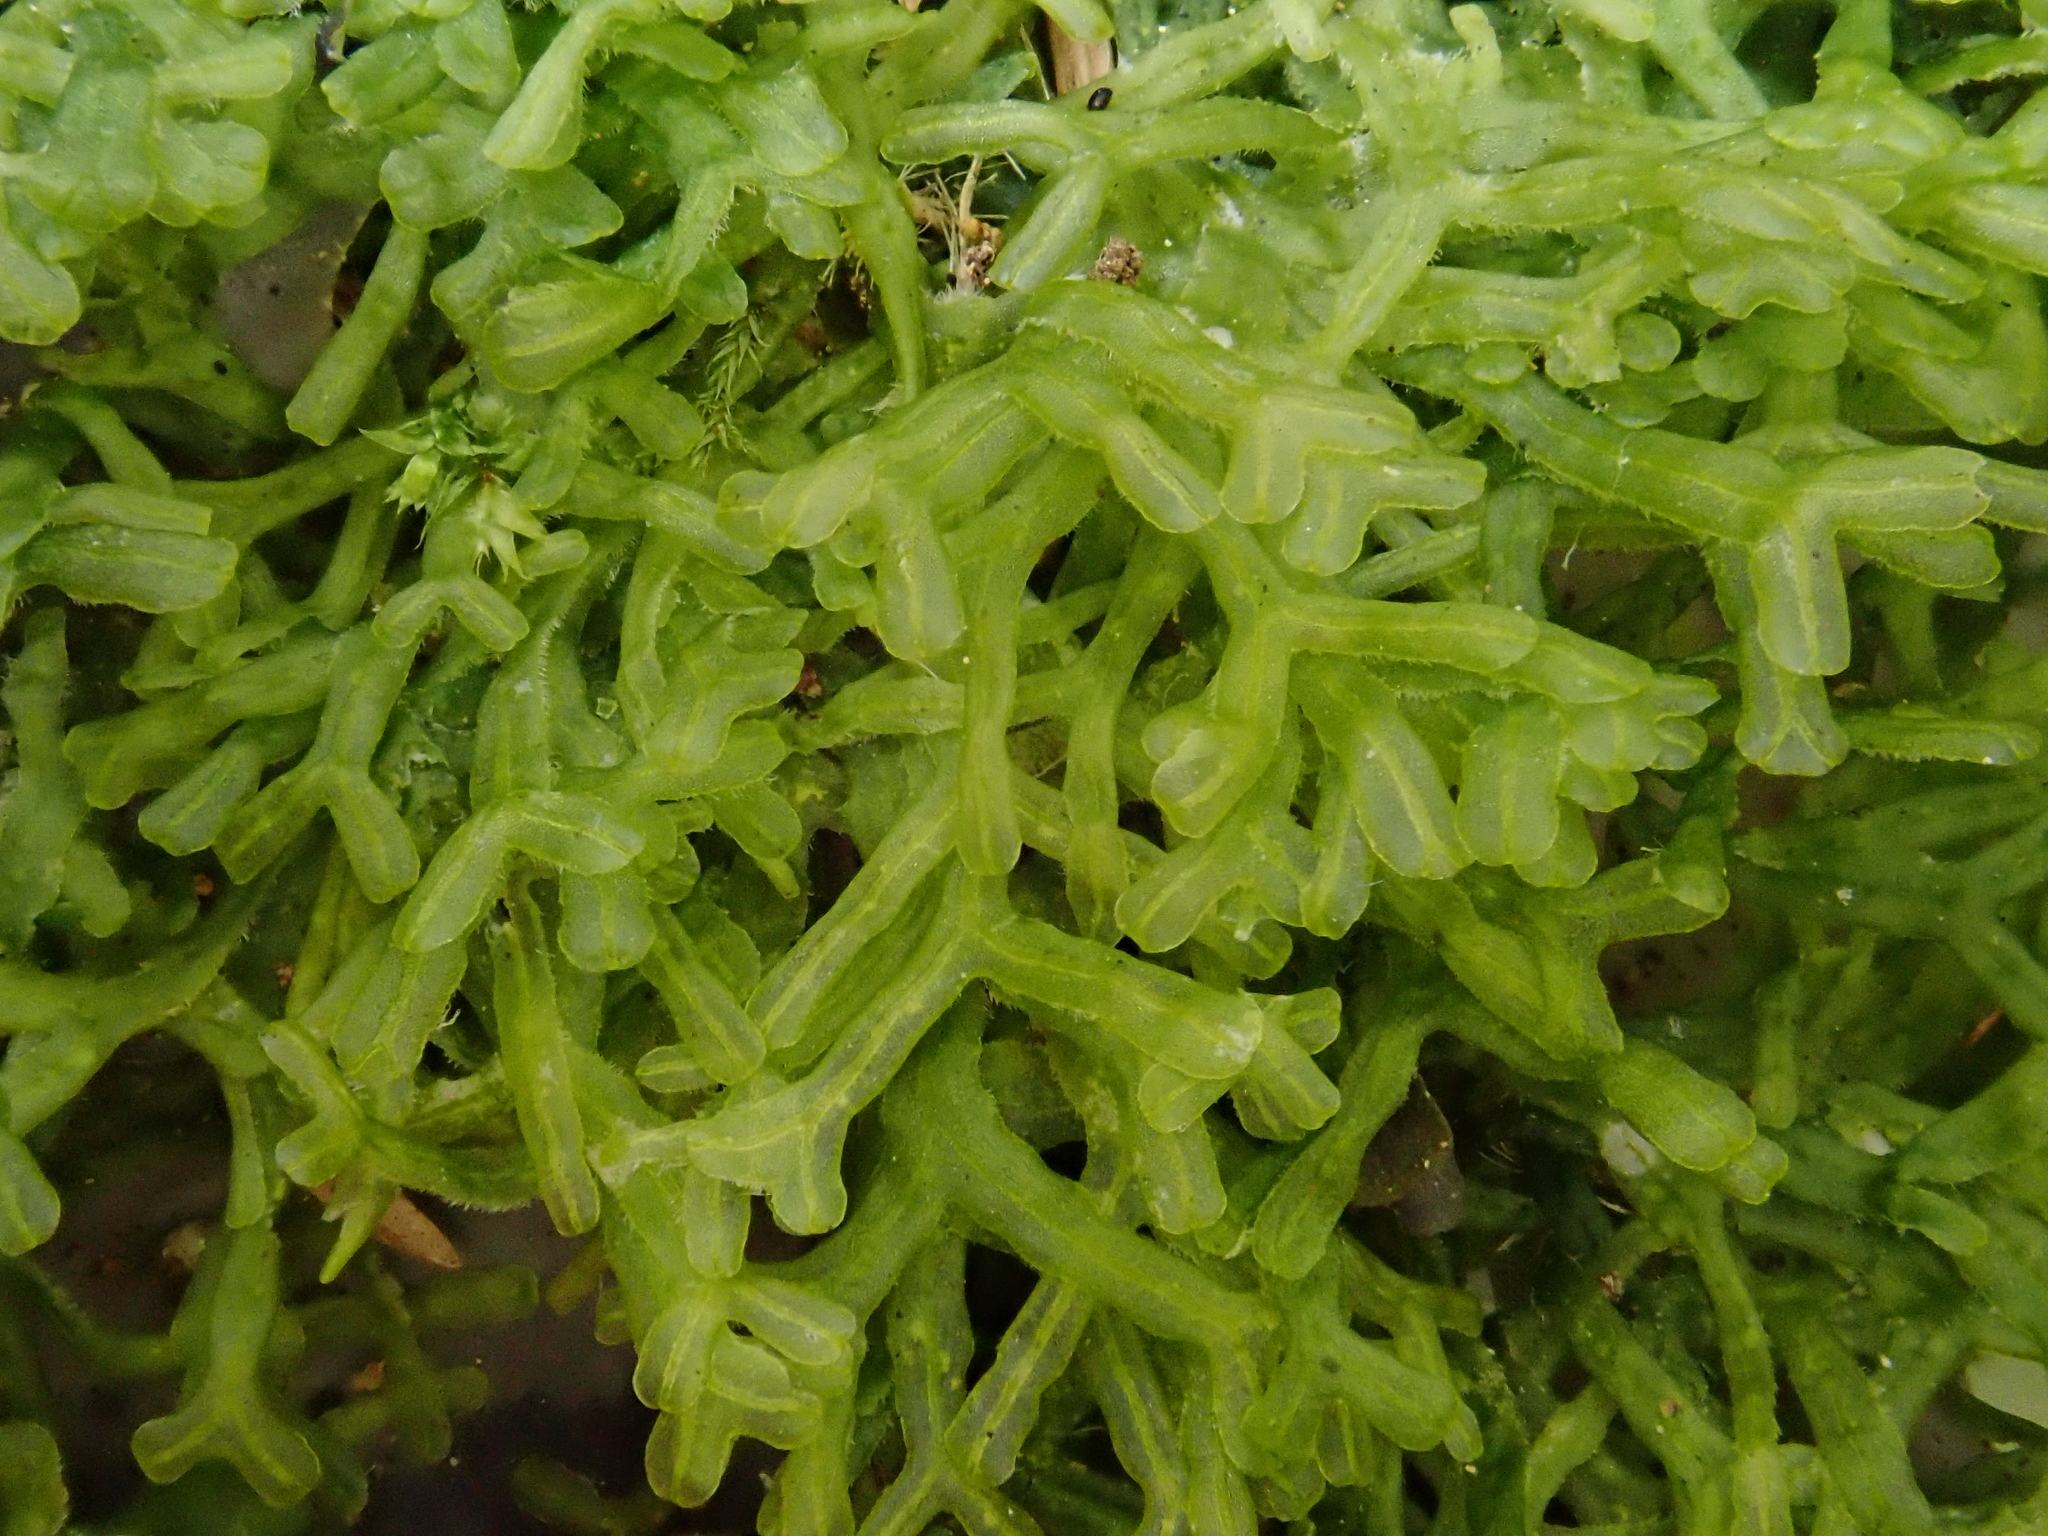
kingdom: Plantae
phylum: Marchantiophyta
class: Jungermanniopsida
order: Metzgeriales
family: Metzgeriaceae
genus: Metzgeria
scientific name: Metzgeria conjugata
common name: Rock veilwort
